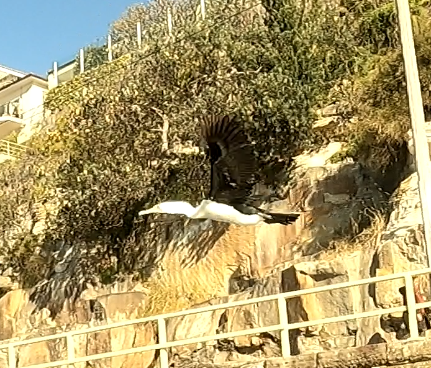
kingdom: Animalia
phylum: Chordata
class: Aves
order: Suliformes
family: Phalacrocoracidae
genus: Phalacrocorax
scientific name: Phalacrocorax varius
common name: Pied cormorant
